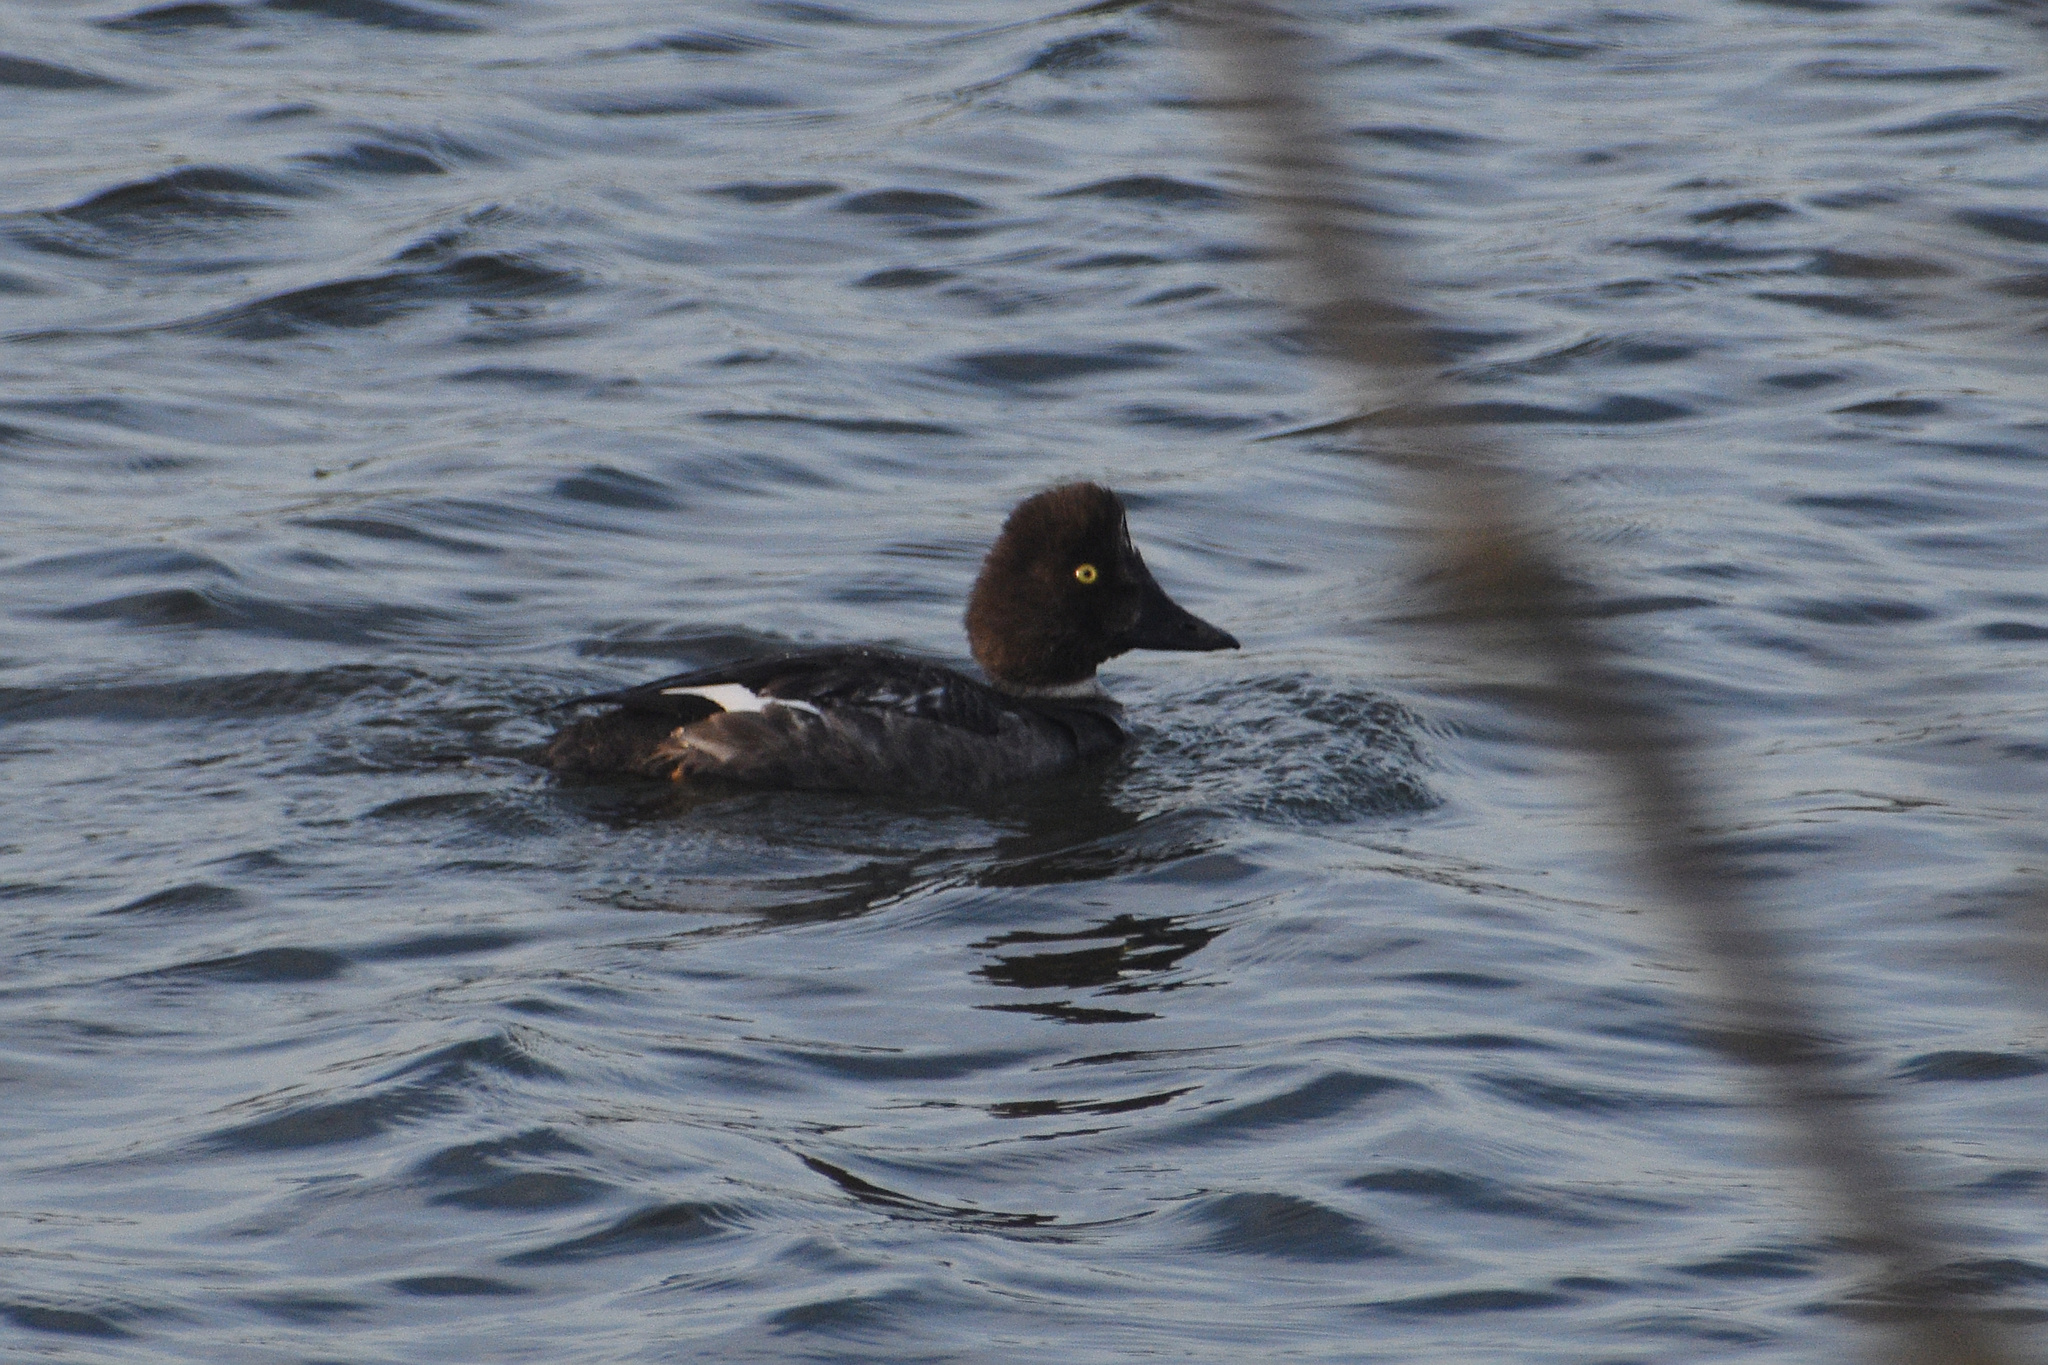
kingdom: Animalia
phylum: Chordata
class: Aves
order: Anseriformes
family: Anatidae
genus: Bucephala
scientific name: Bucephala clangula
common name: Common goldeneye
